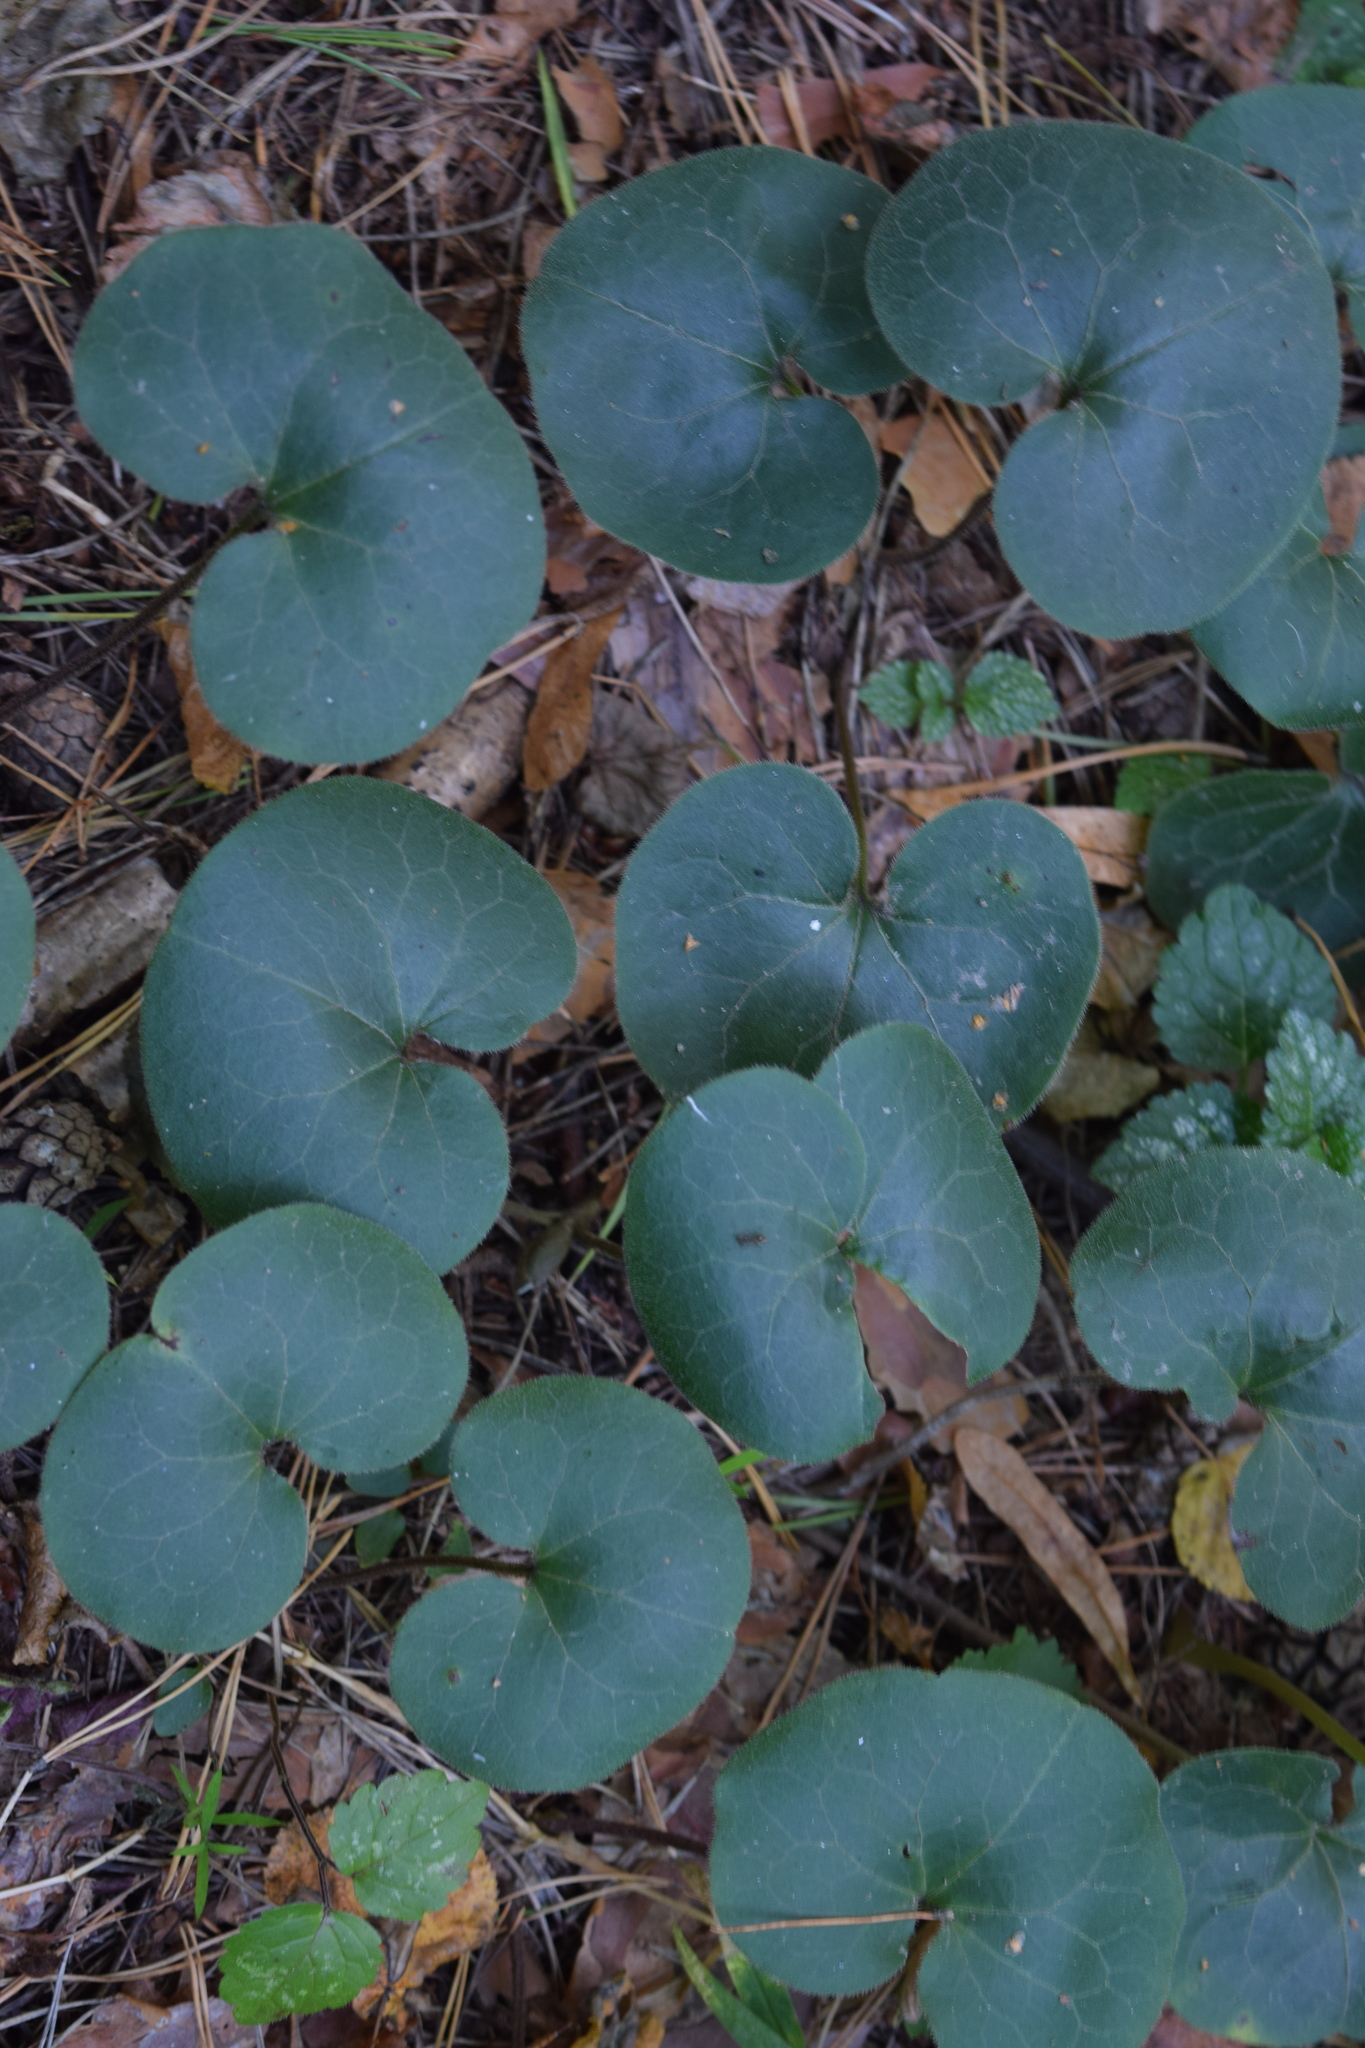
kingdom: Plantae
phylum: Tracheophyta
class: Magnoliopsida
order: Piperales
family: Aristolochiaceae
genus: Asarum
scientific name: Asarum europaeum
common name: Asarabacca
